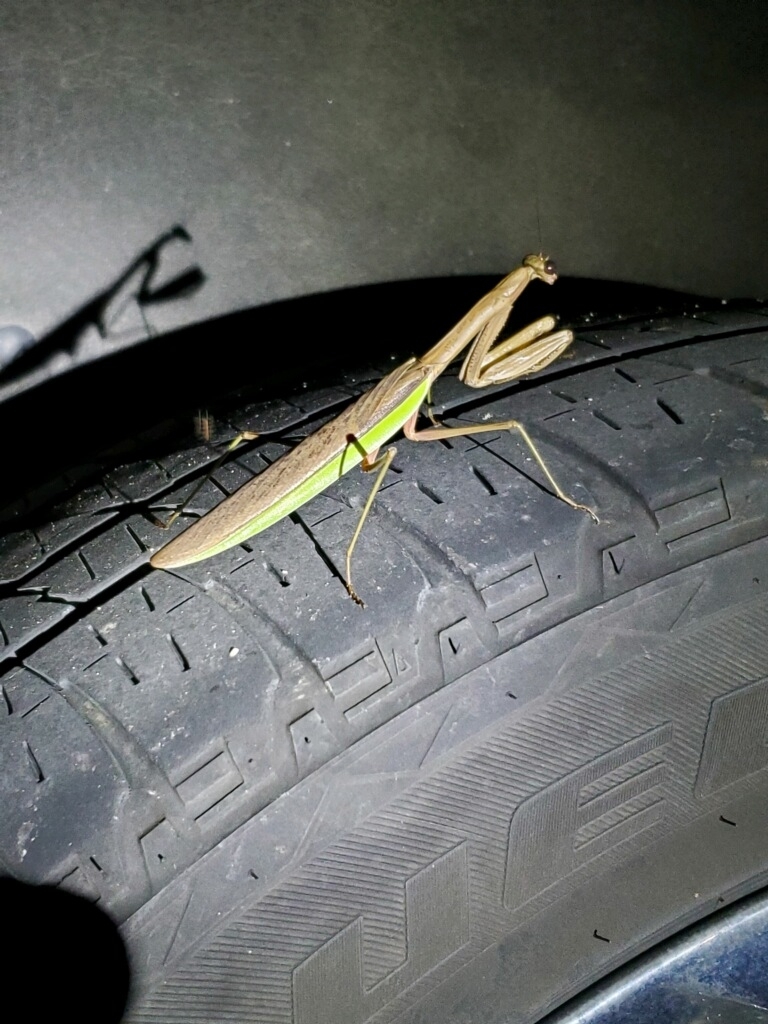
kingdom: Animalia
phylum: Arthropoda
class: Insecta
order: Mantodea
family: Mantidae
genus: Tenodera
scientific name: Tenodera sinensis
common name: Chinese mantis
